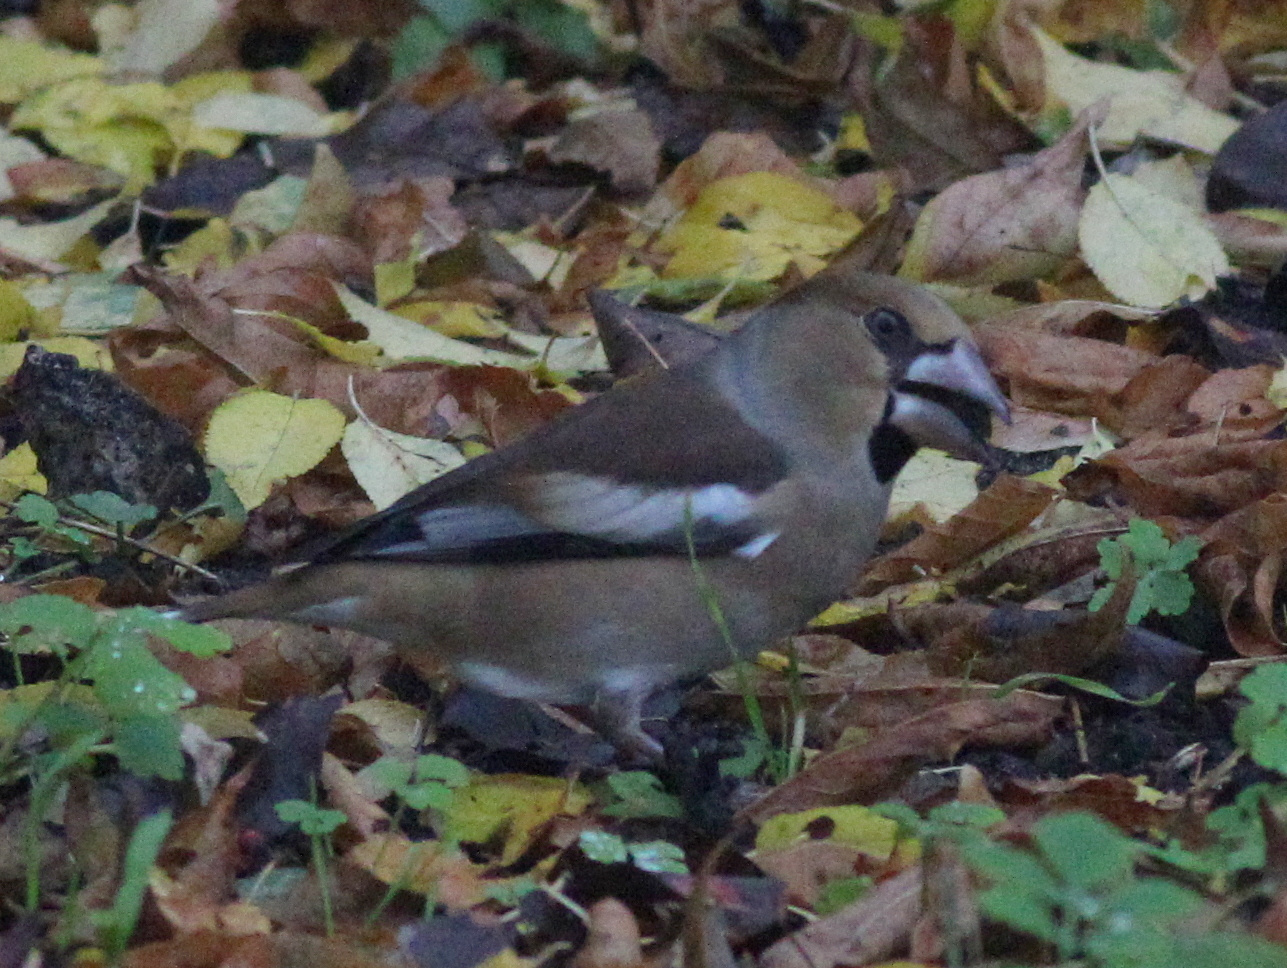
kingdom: Animalia
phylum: Chordata
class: Aves
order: Passeriformes
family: Fringillidae
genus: Coccothraustes
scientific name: Coccothraustes coccothraustes
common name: Hawfinch
